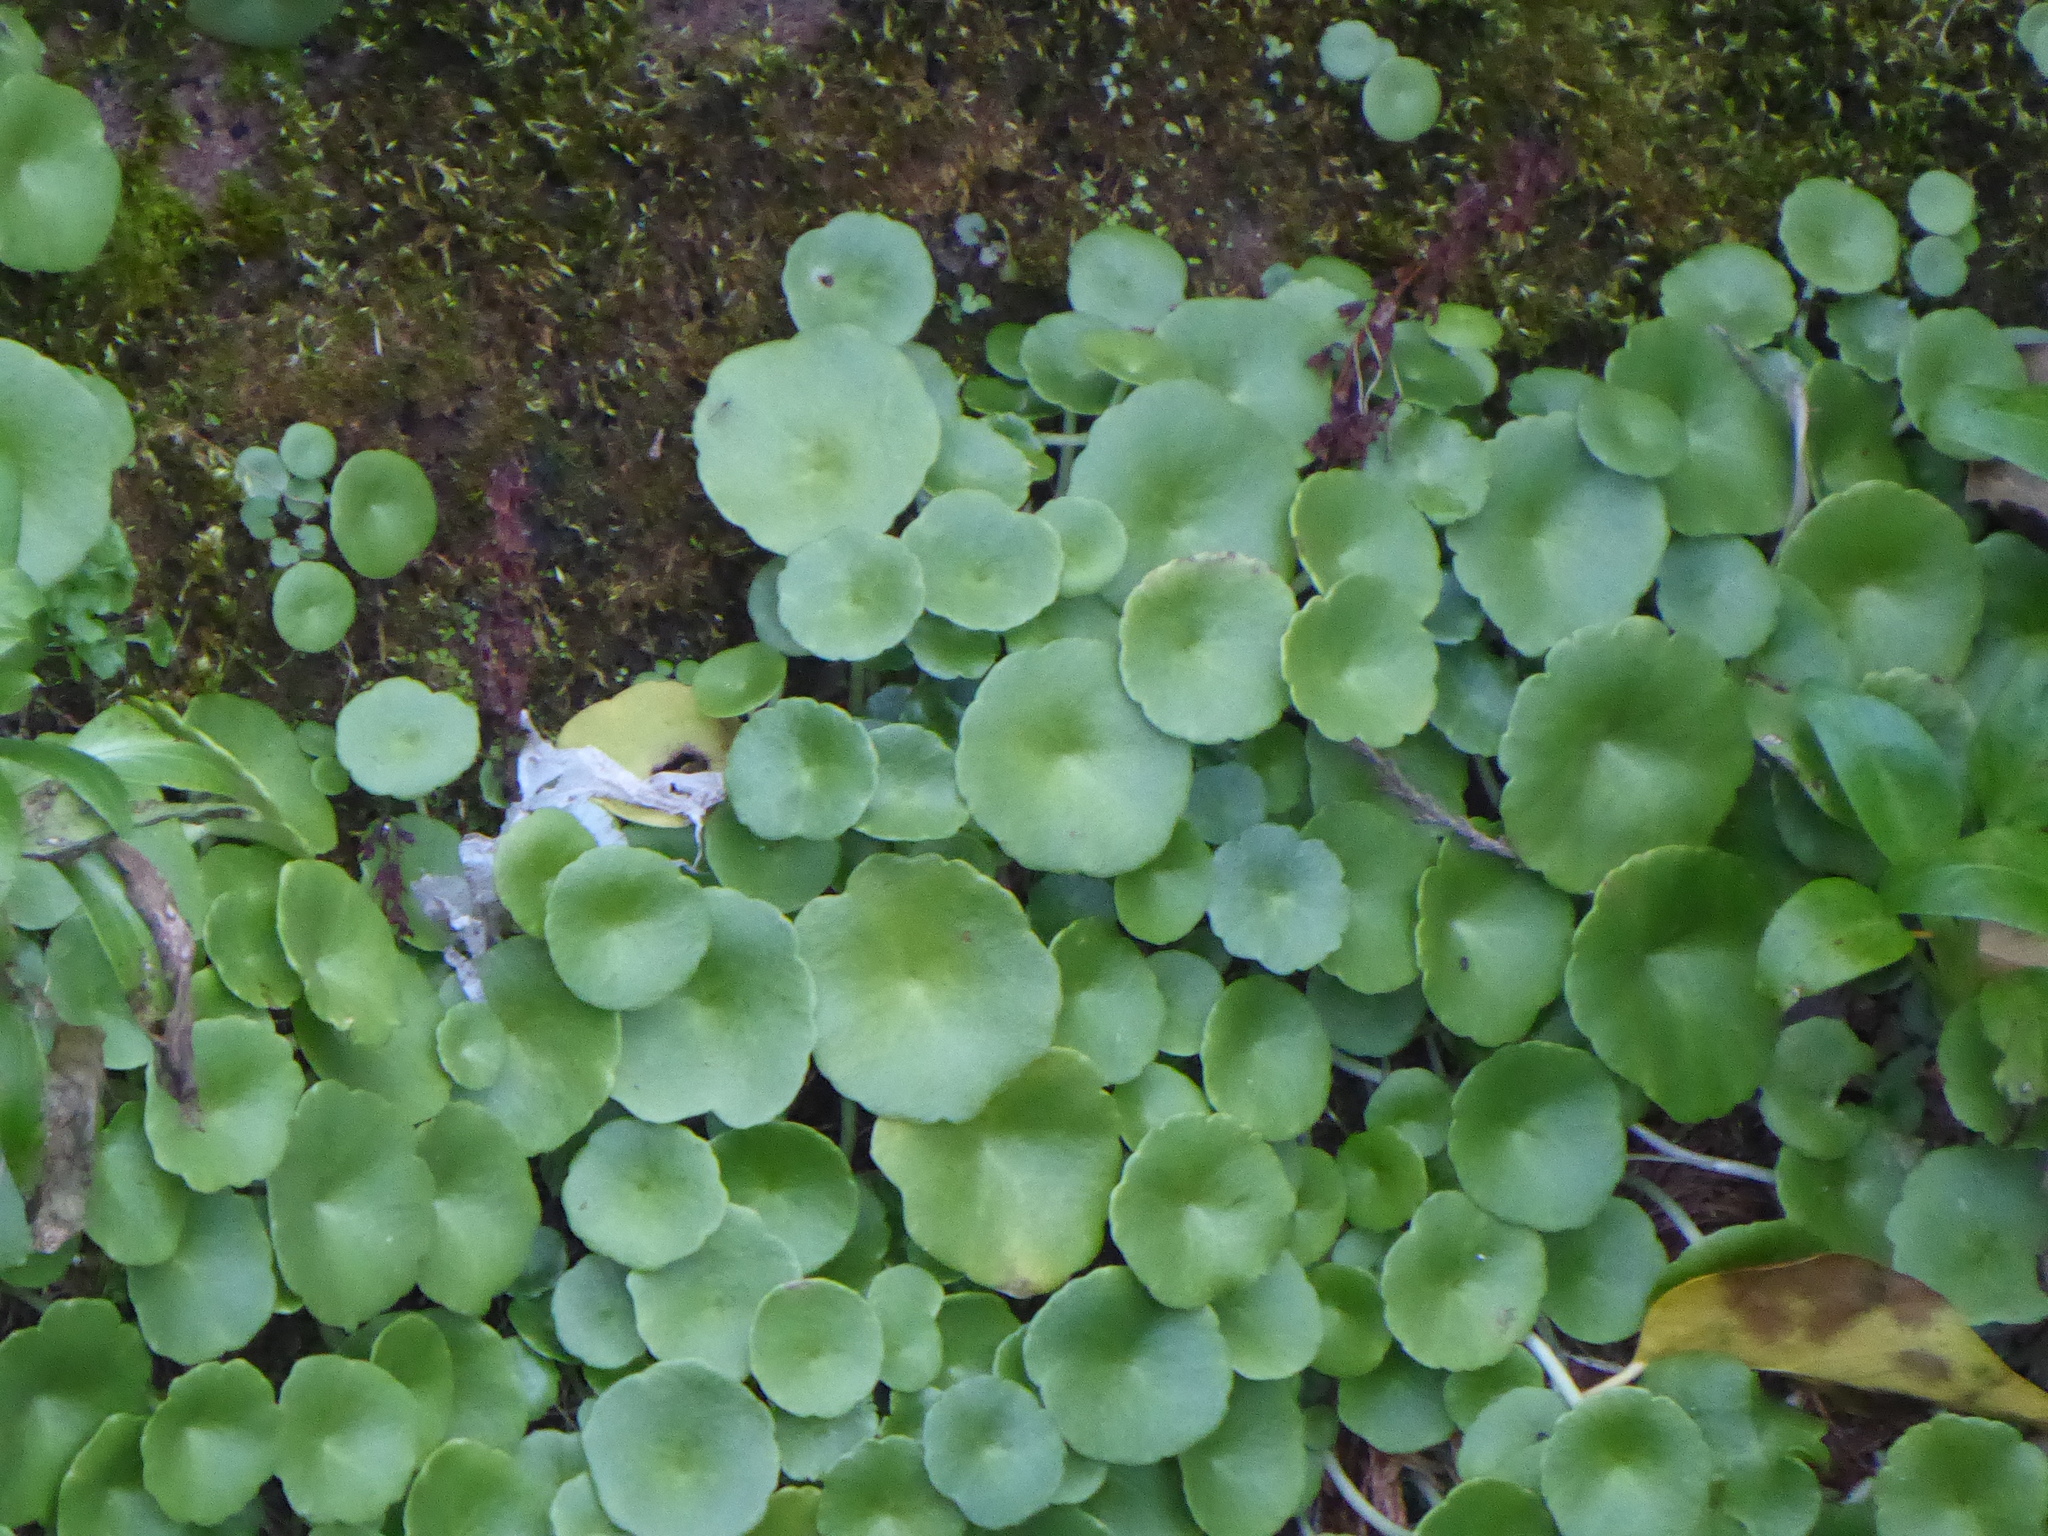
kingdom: Plantae
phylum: Tracheophyta
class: Magnoliopsida
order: Saxifragales
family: Crassulaceae
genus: Umbilicus
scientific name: Umbilicus rupestris
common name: Navelwort
